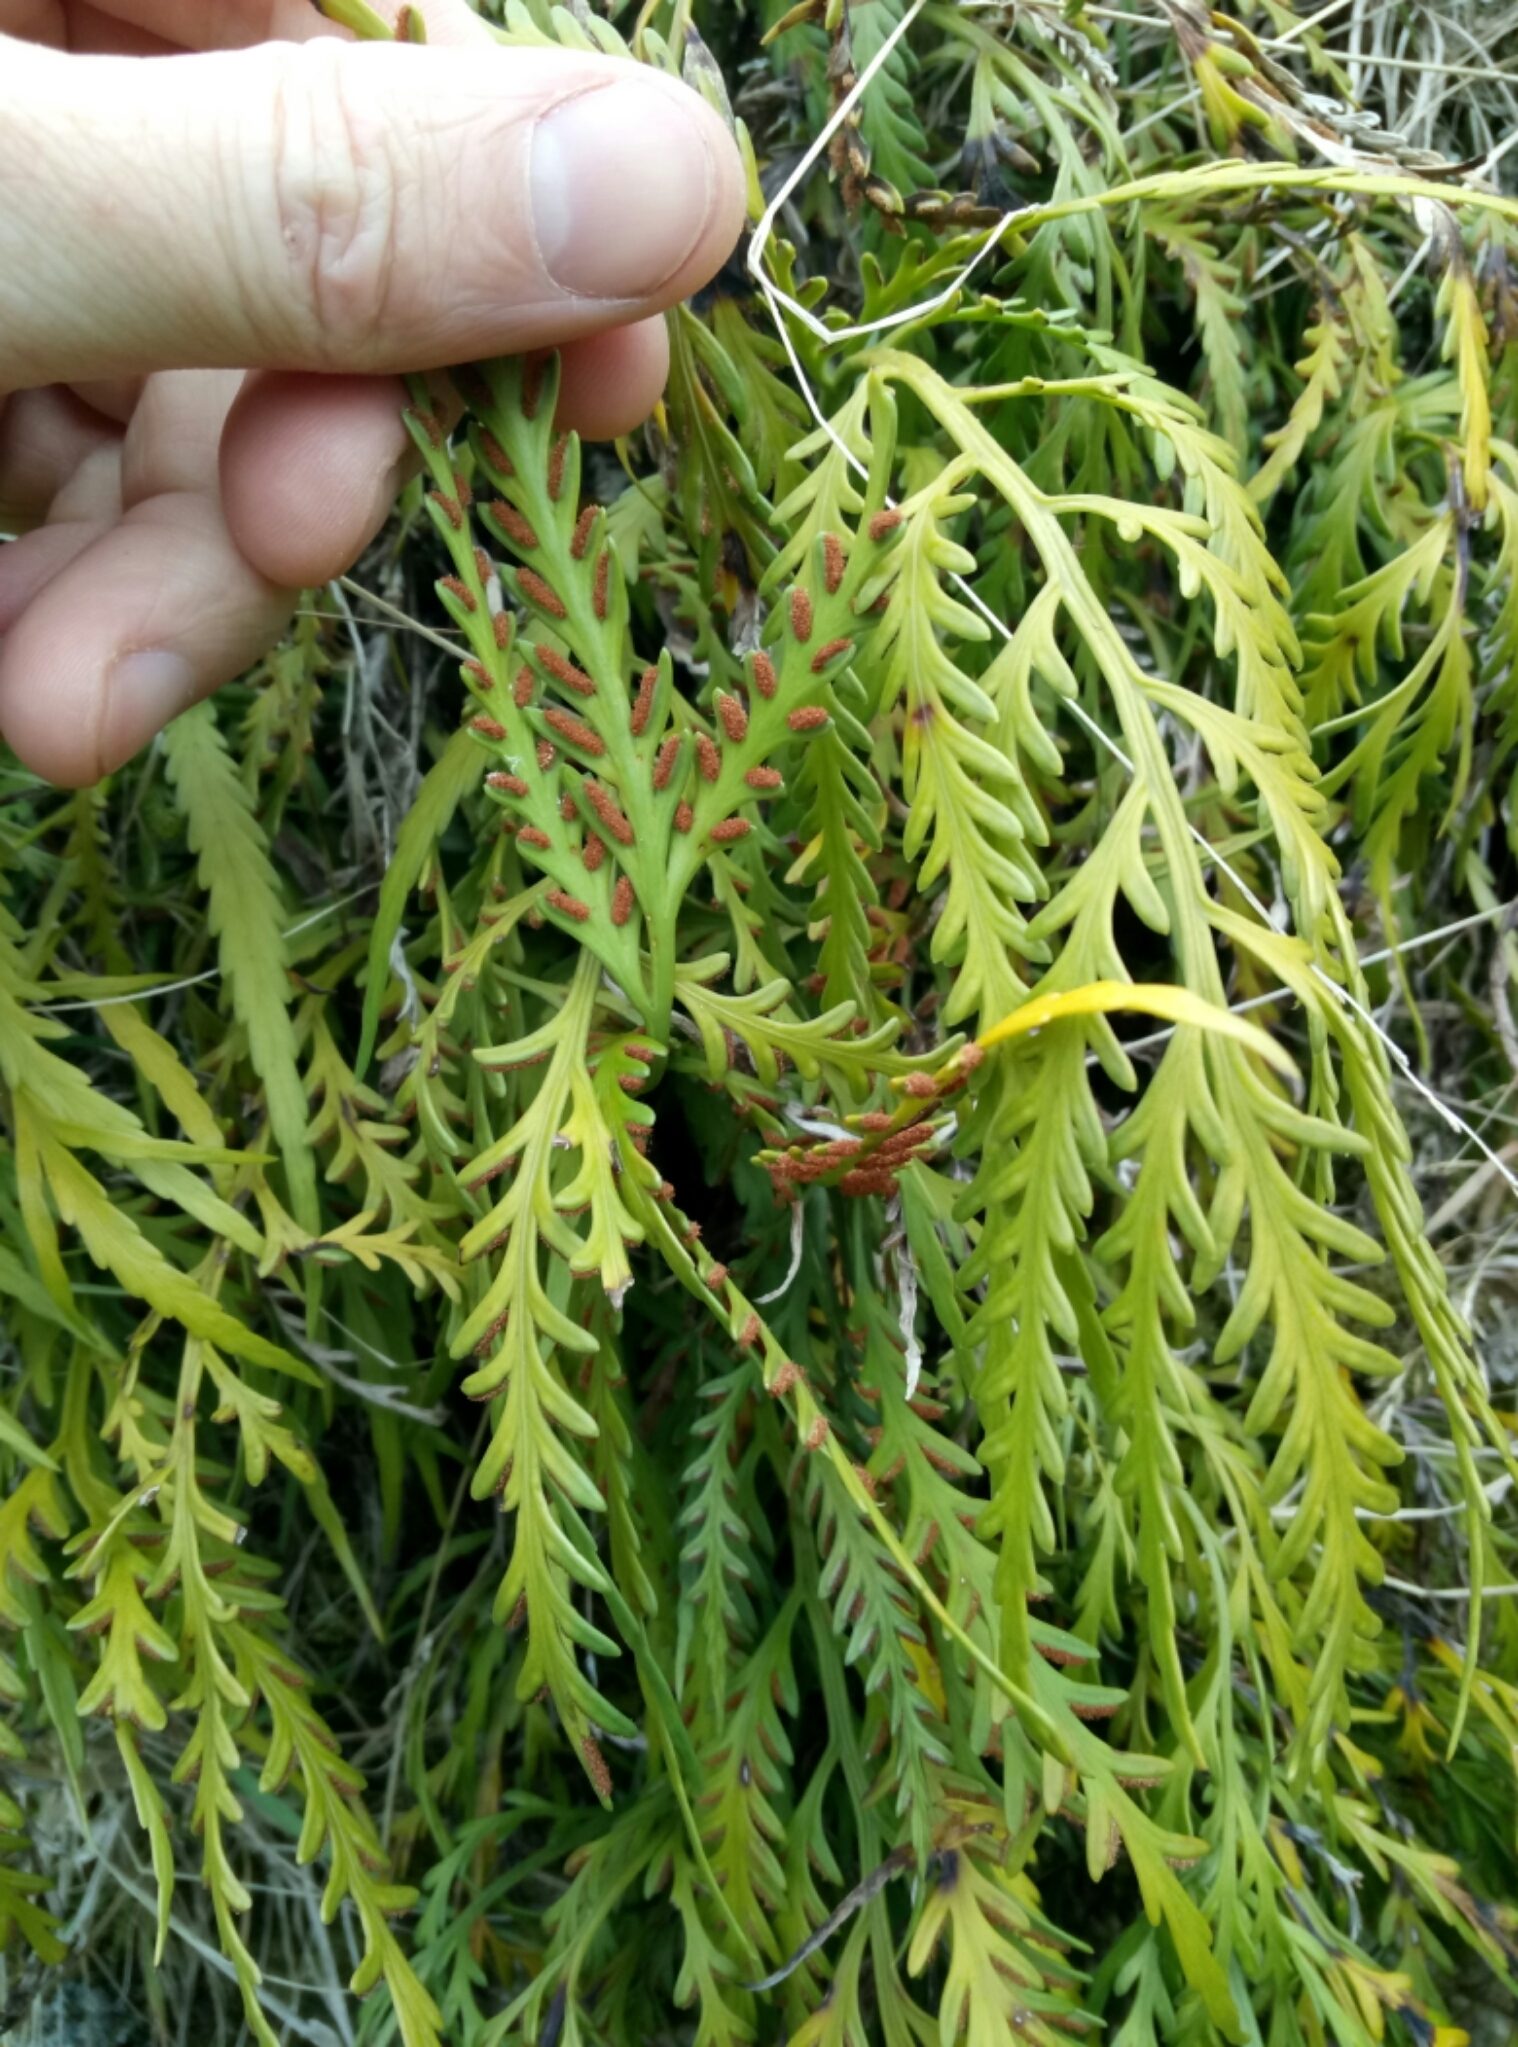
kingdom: Plantae
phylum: Tracheophyta
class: Polypodiopsida
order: Polypodiales
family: Aspleniaceae
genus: Asplenium
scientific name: Asplenium flaccidum
